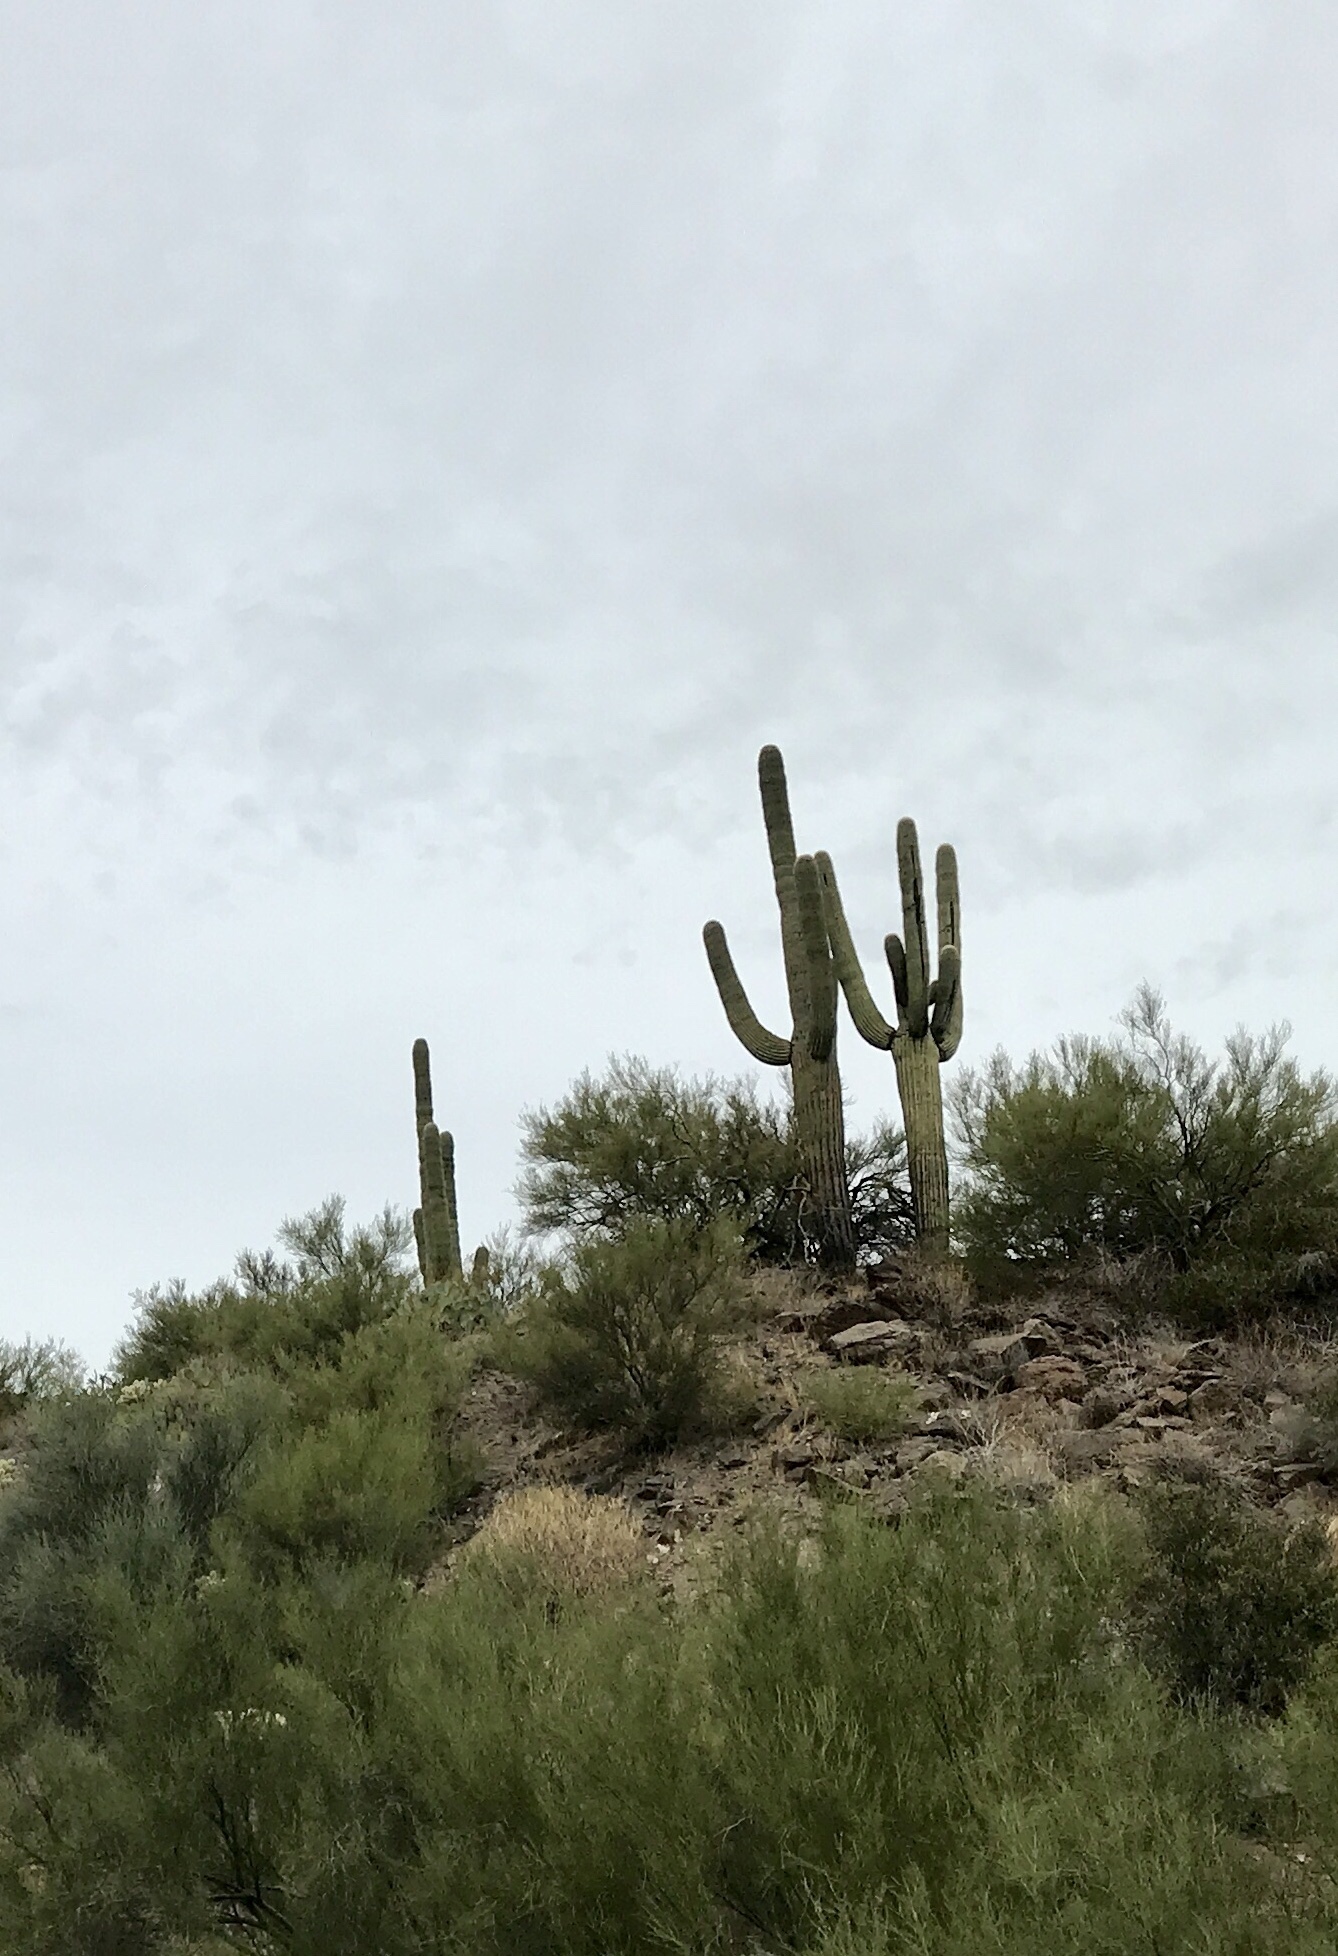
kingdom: Plantae
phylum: Tracheophyta
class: Magnoliopsida
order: Caryophyllales
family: Cactaceae
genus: Carnegiea
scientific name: Carnegiea gigantea
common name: Saguaro
